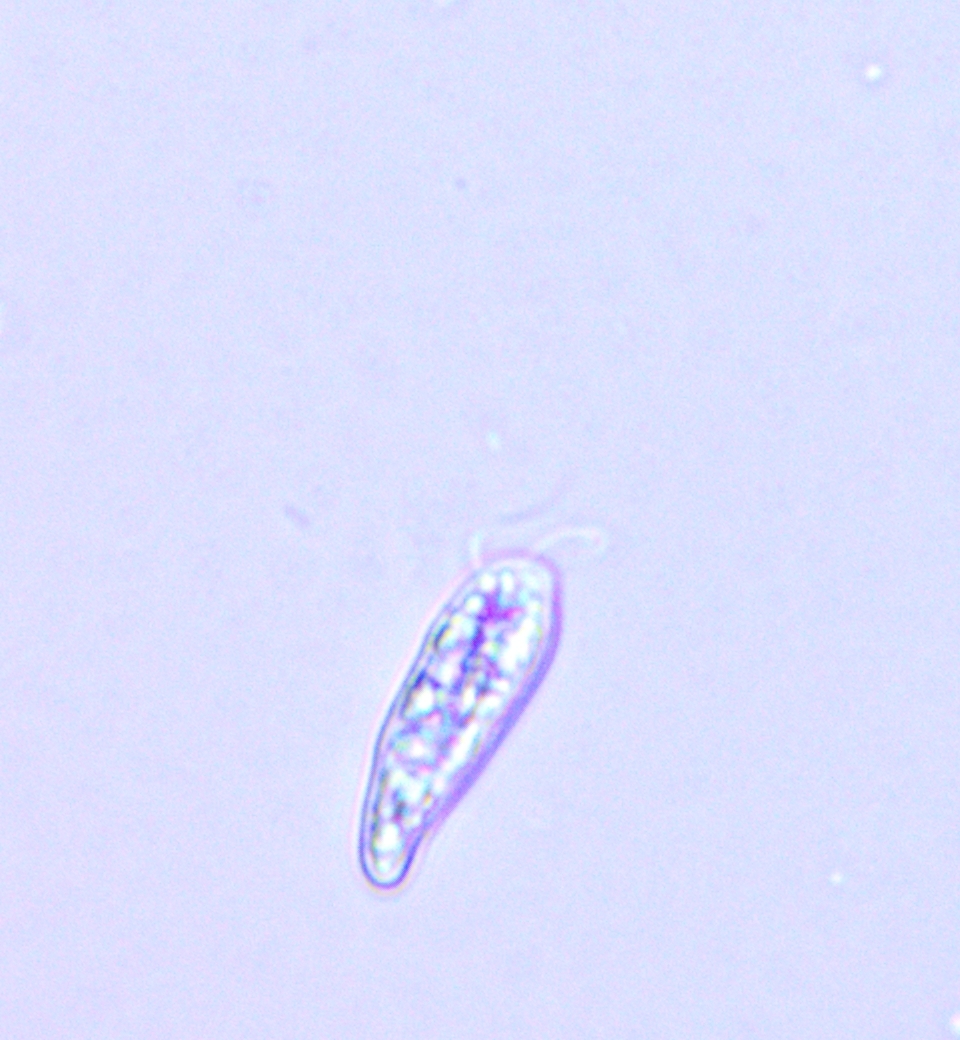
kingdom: Chromista
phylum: Cryptophyta
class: Cryptophyceae
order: Cryptomonadales
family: Cryptomonadaceae
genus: Cryptomonas
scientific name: Cryptomonas paramaecium
